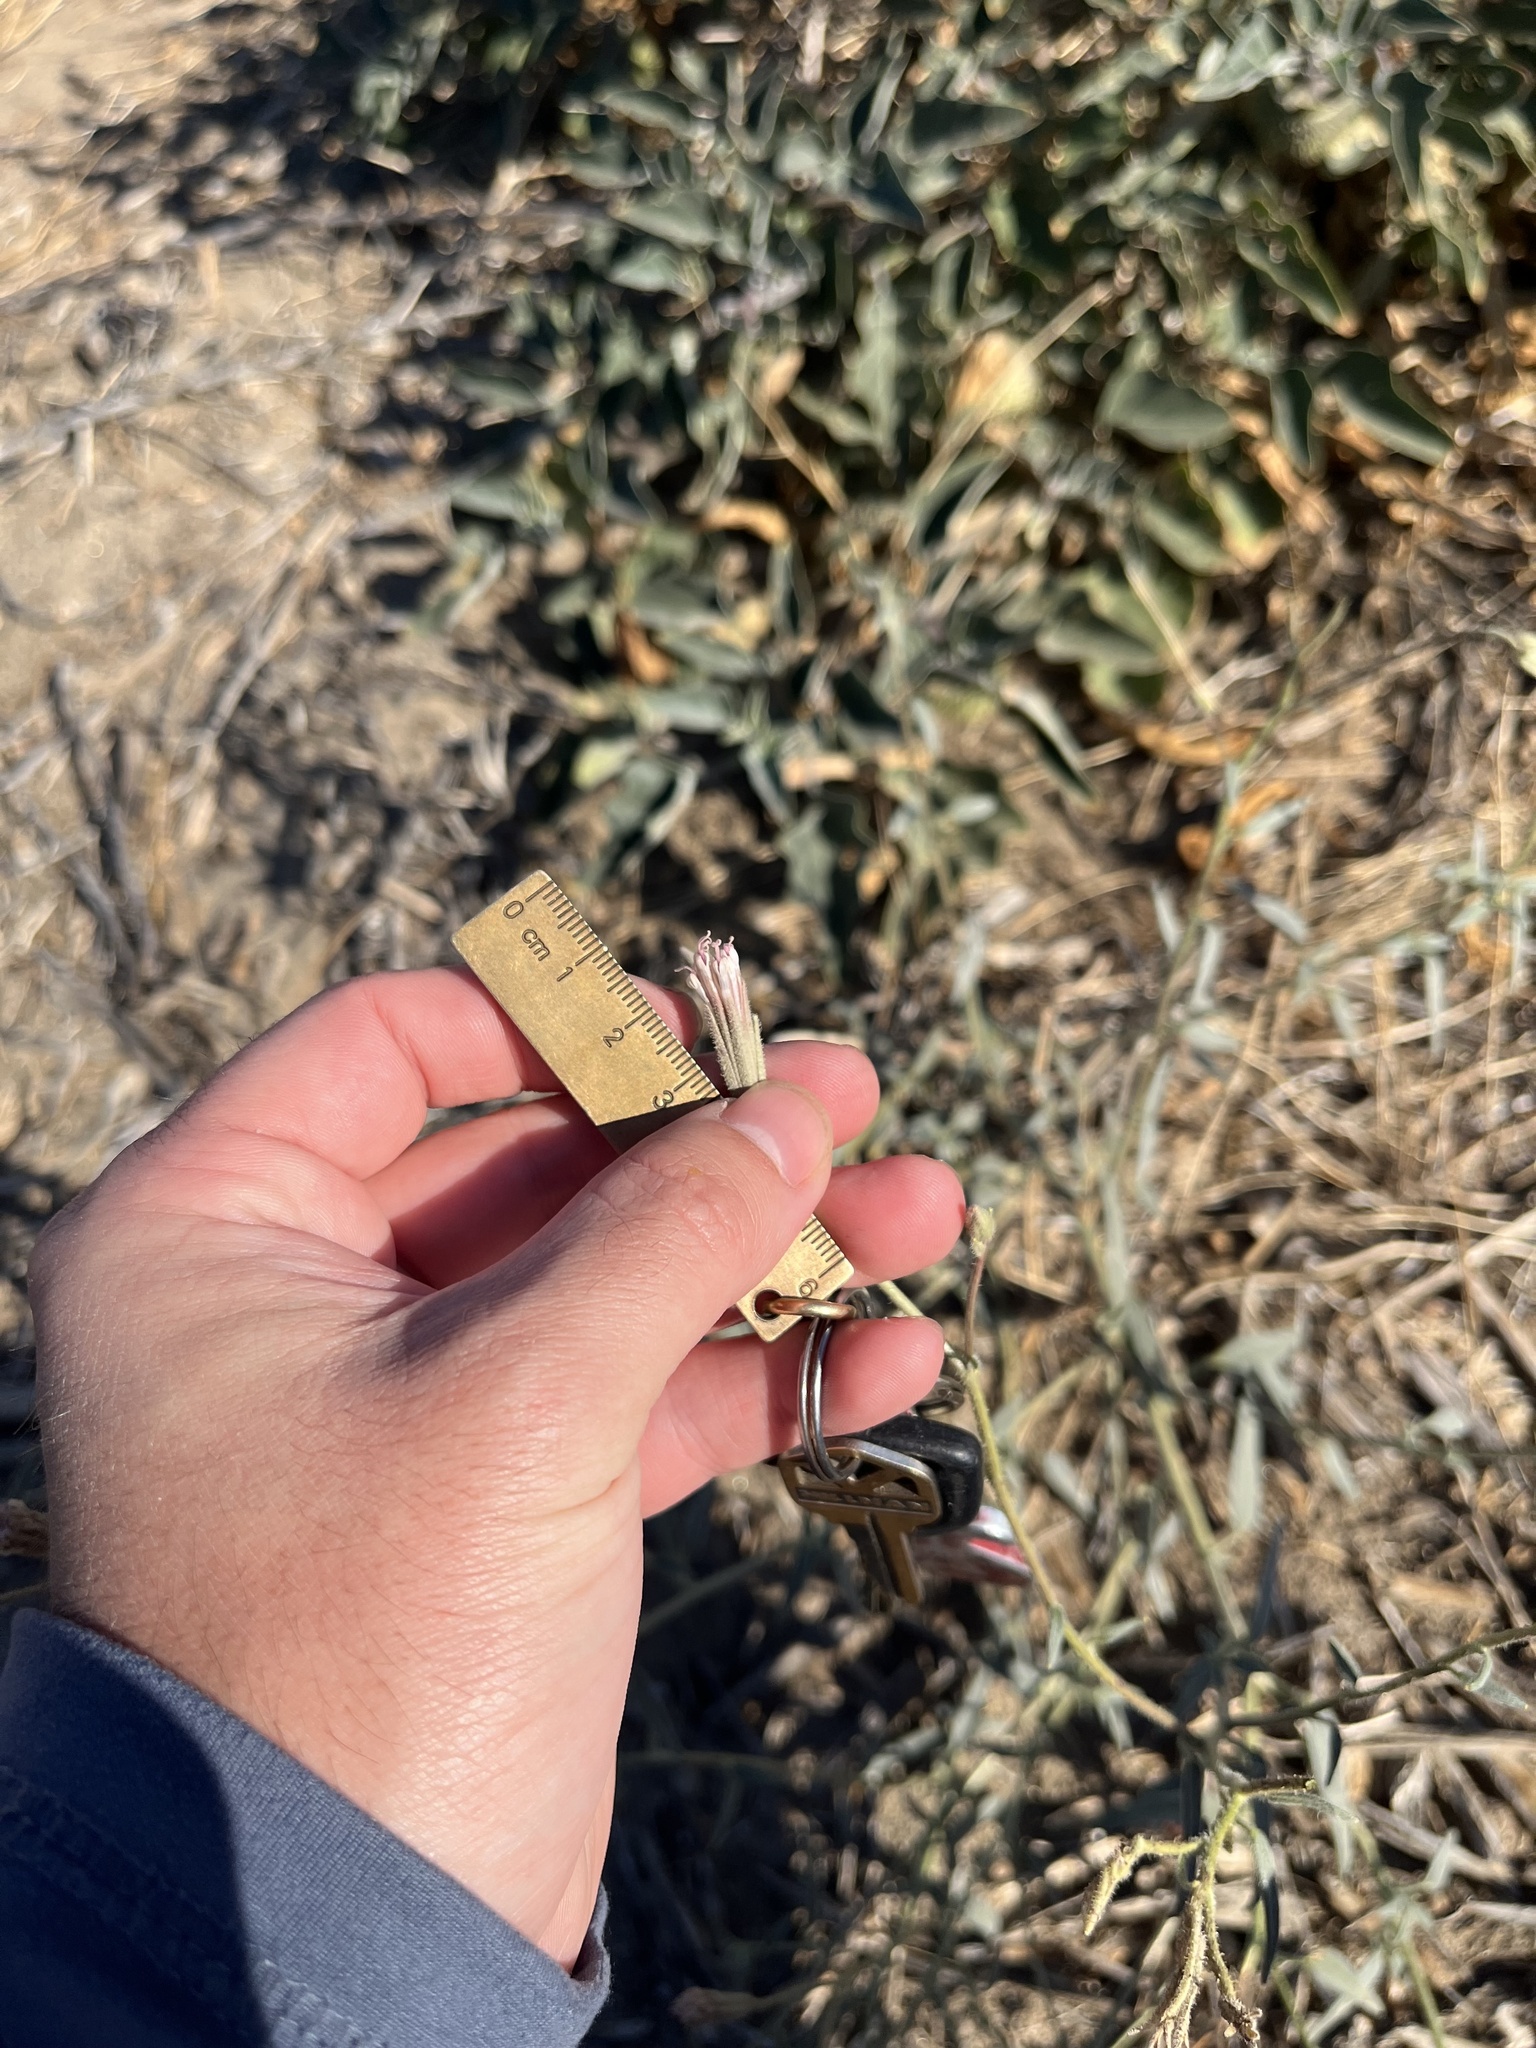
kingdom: Plantae
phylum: Tracheophyta
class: Magnoliopsida
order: Asterales
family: Asteraceae
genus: Palafoxia
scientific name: Palafoxia arida
